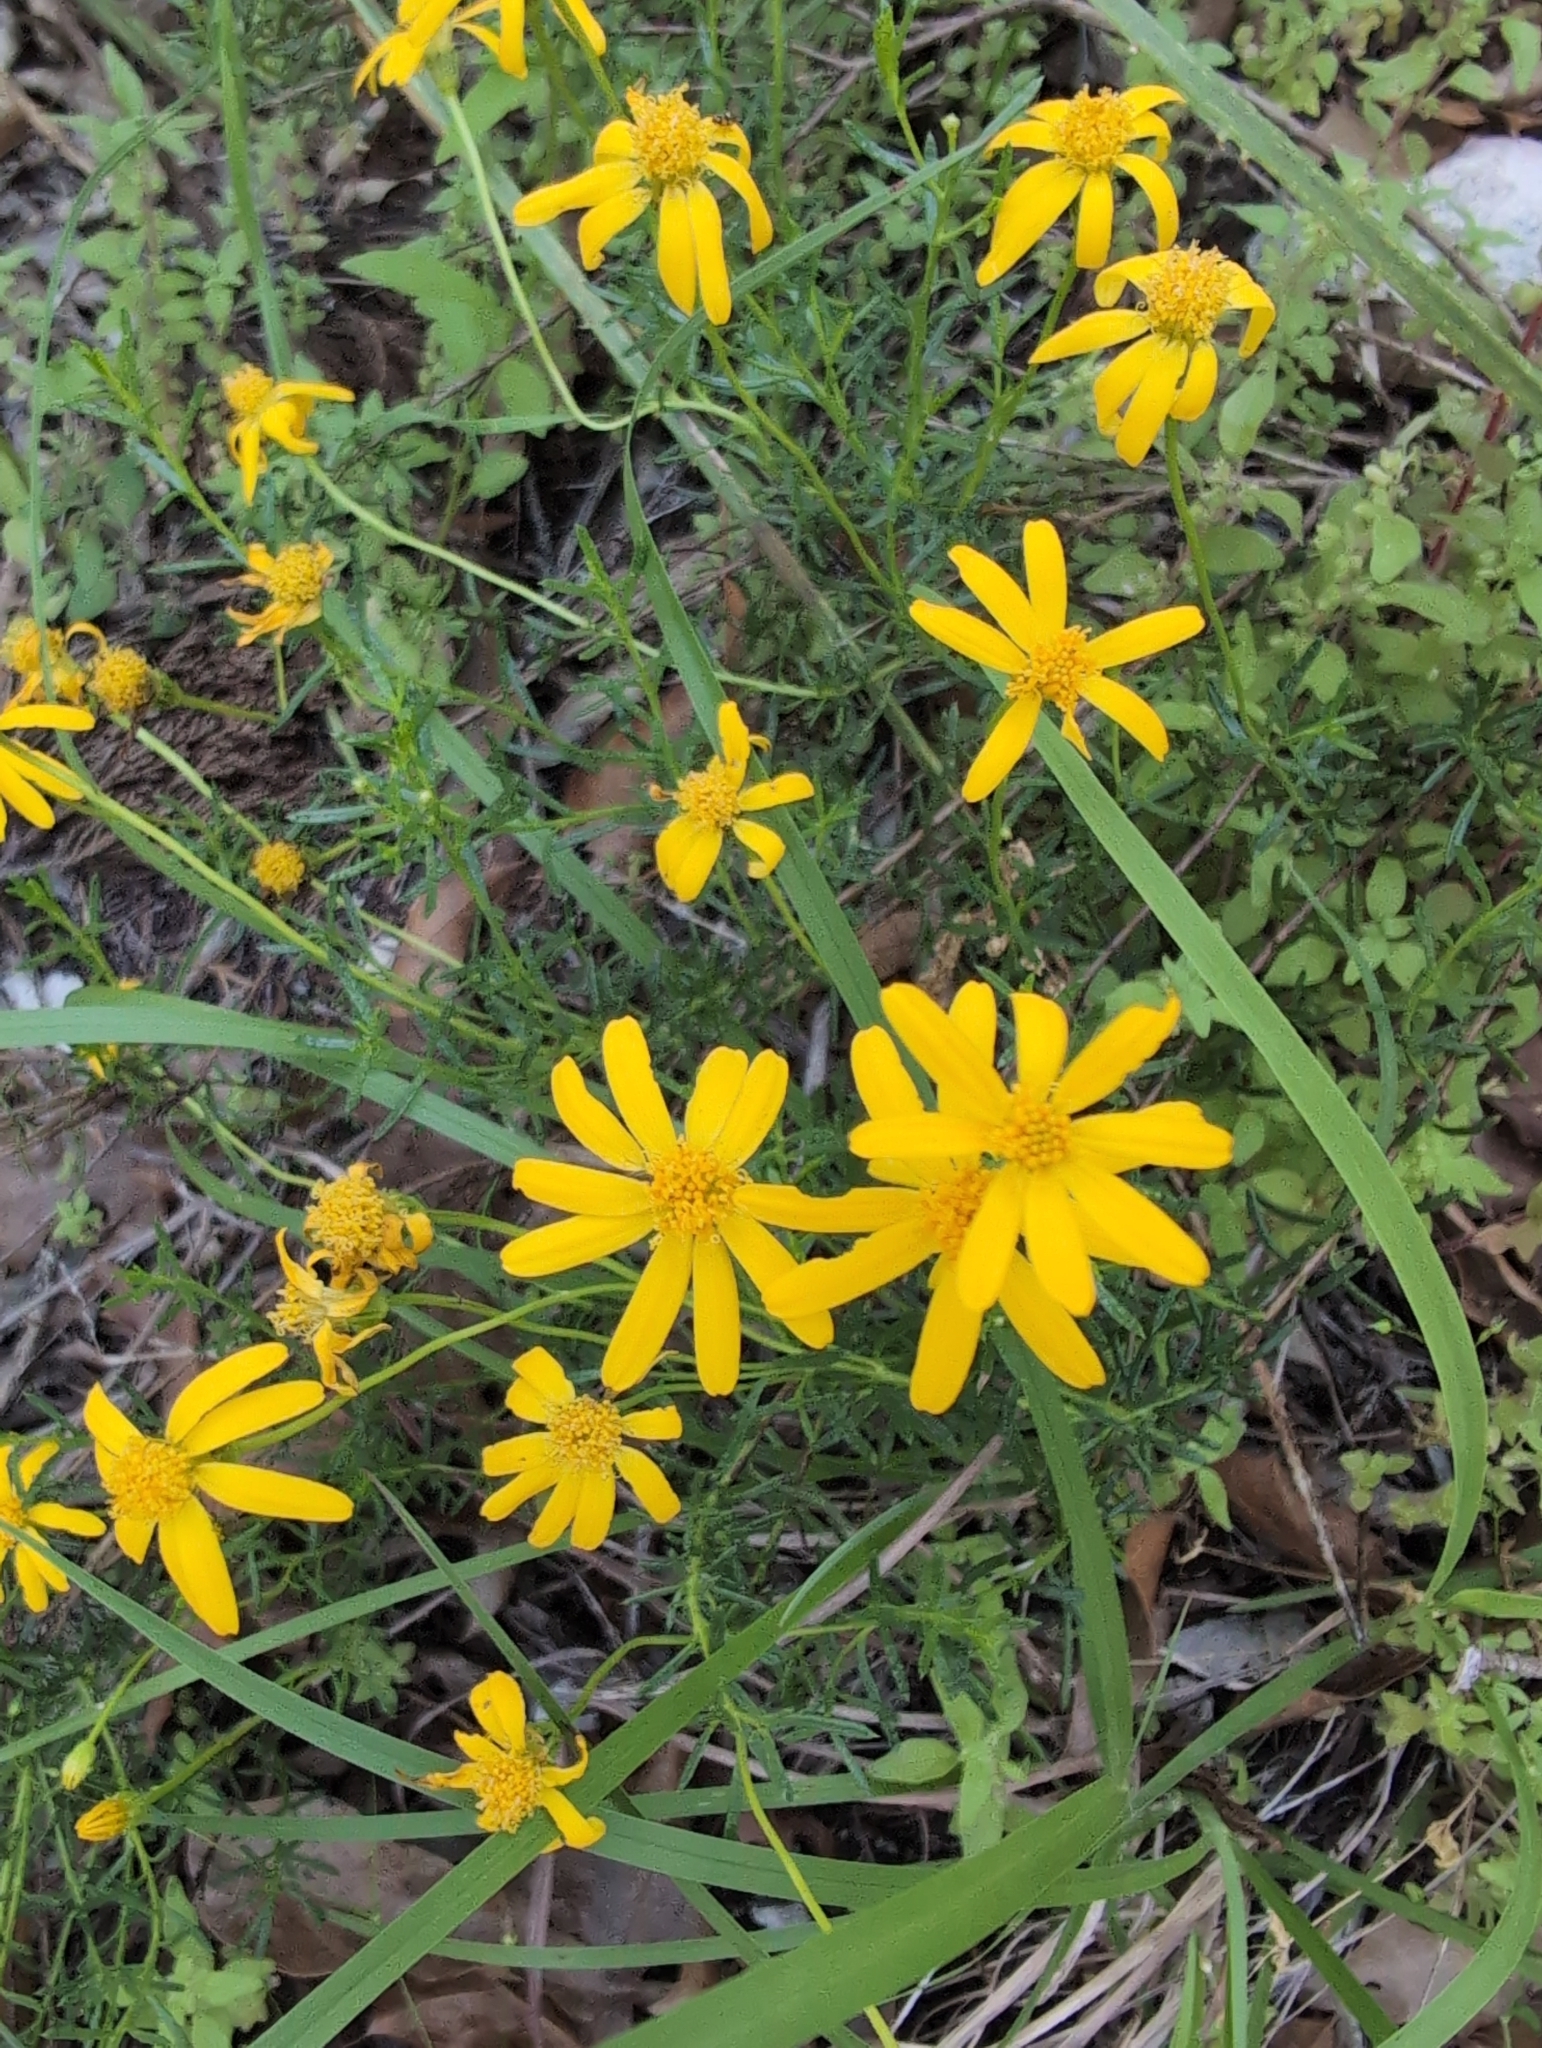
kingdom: Plantae
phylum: Tracheophyta
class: Magnoliopsida
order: Asterales
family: Asteraceae
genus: Chrysactinia
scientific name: Chrysactinia mexicana
